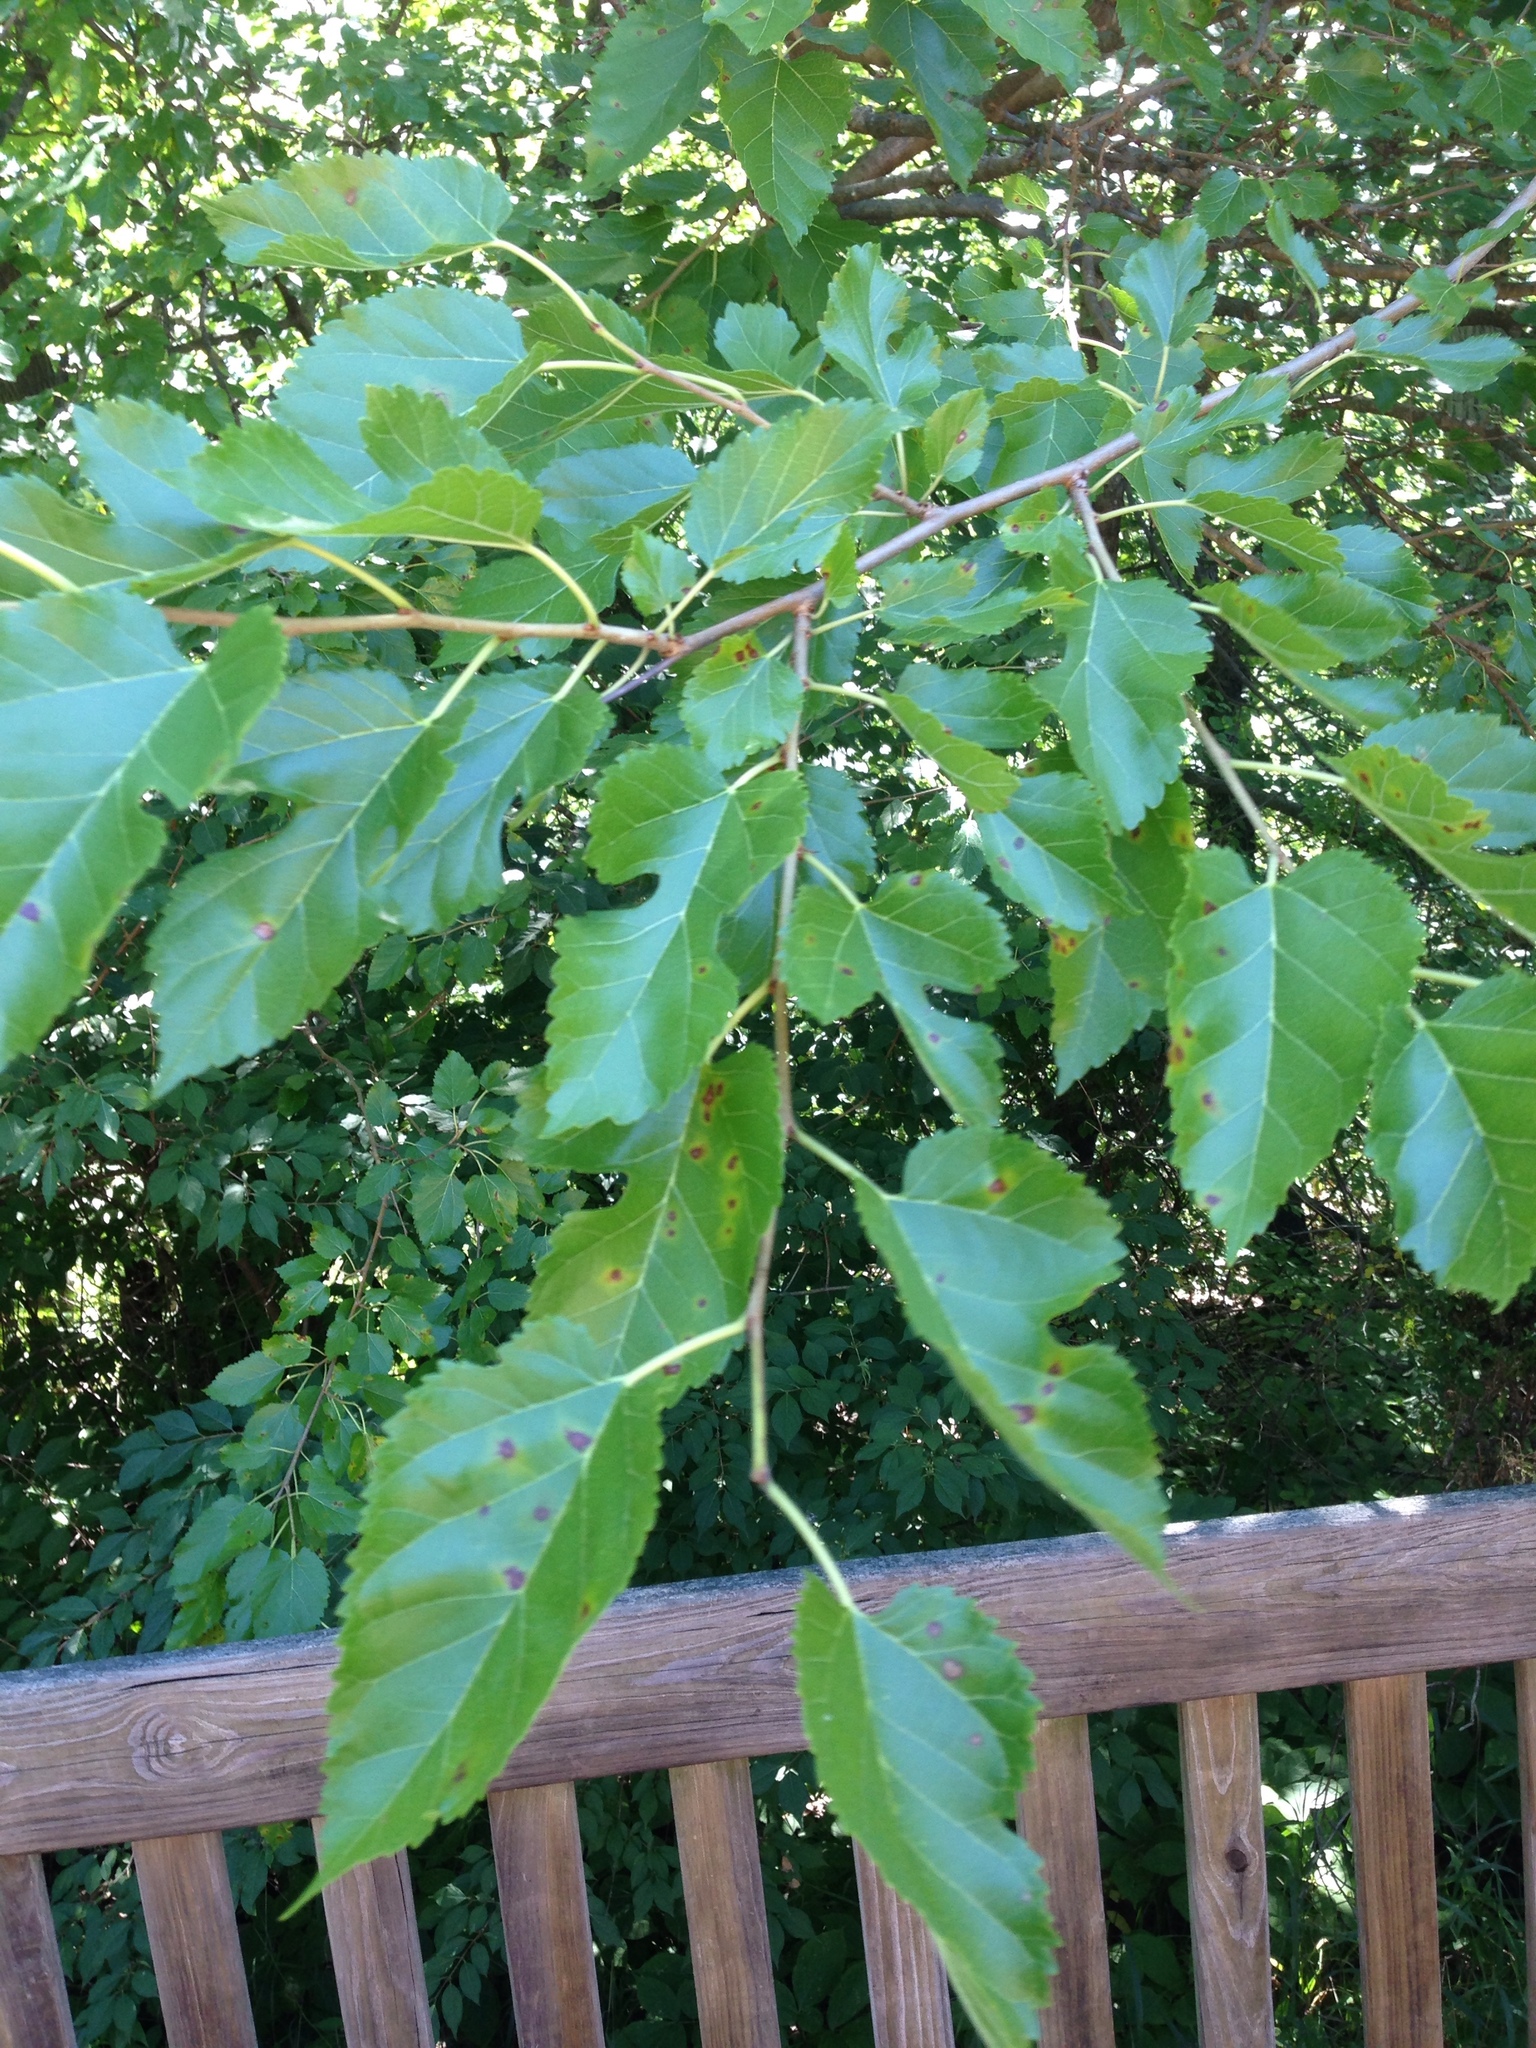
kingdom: Plantae
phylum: Tracheophyta
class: Magnoliopsida
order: Rosales
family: Moraceae
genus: Morus
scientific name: Morus alba
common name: White mulberry
